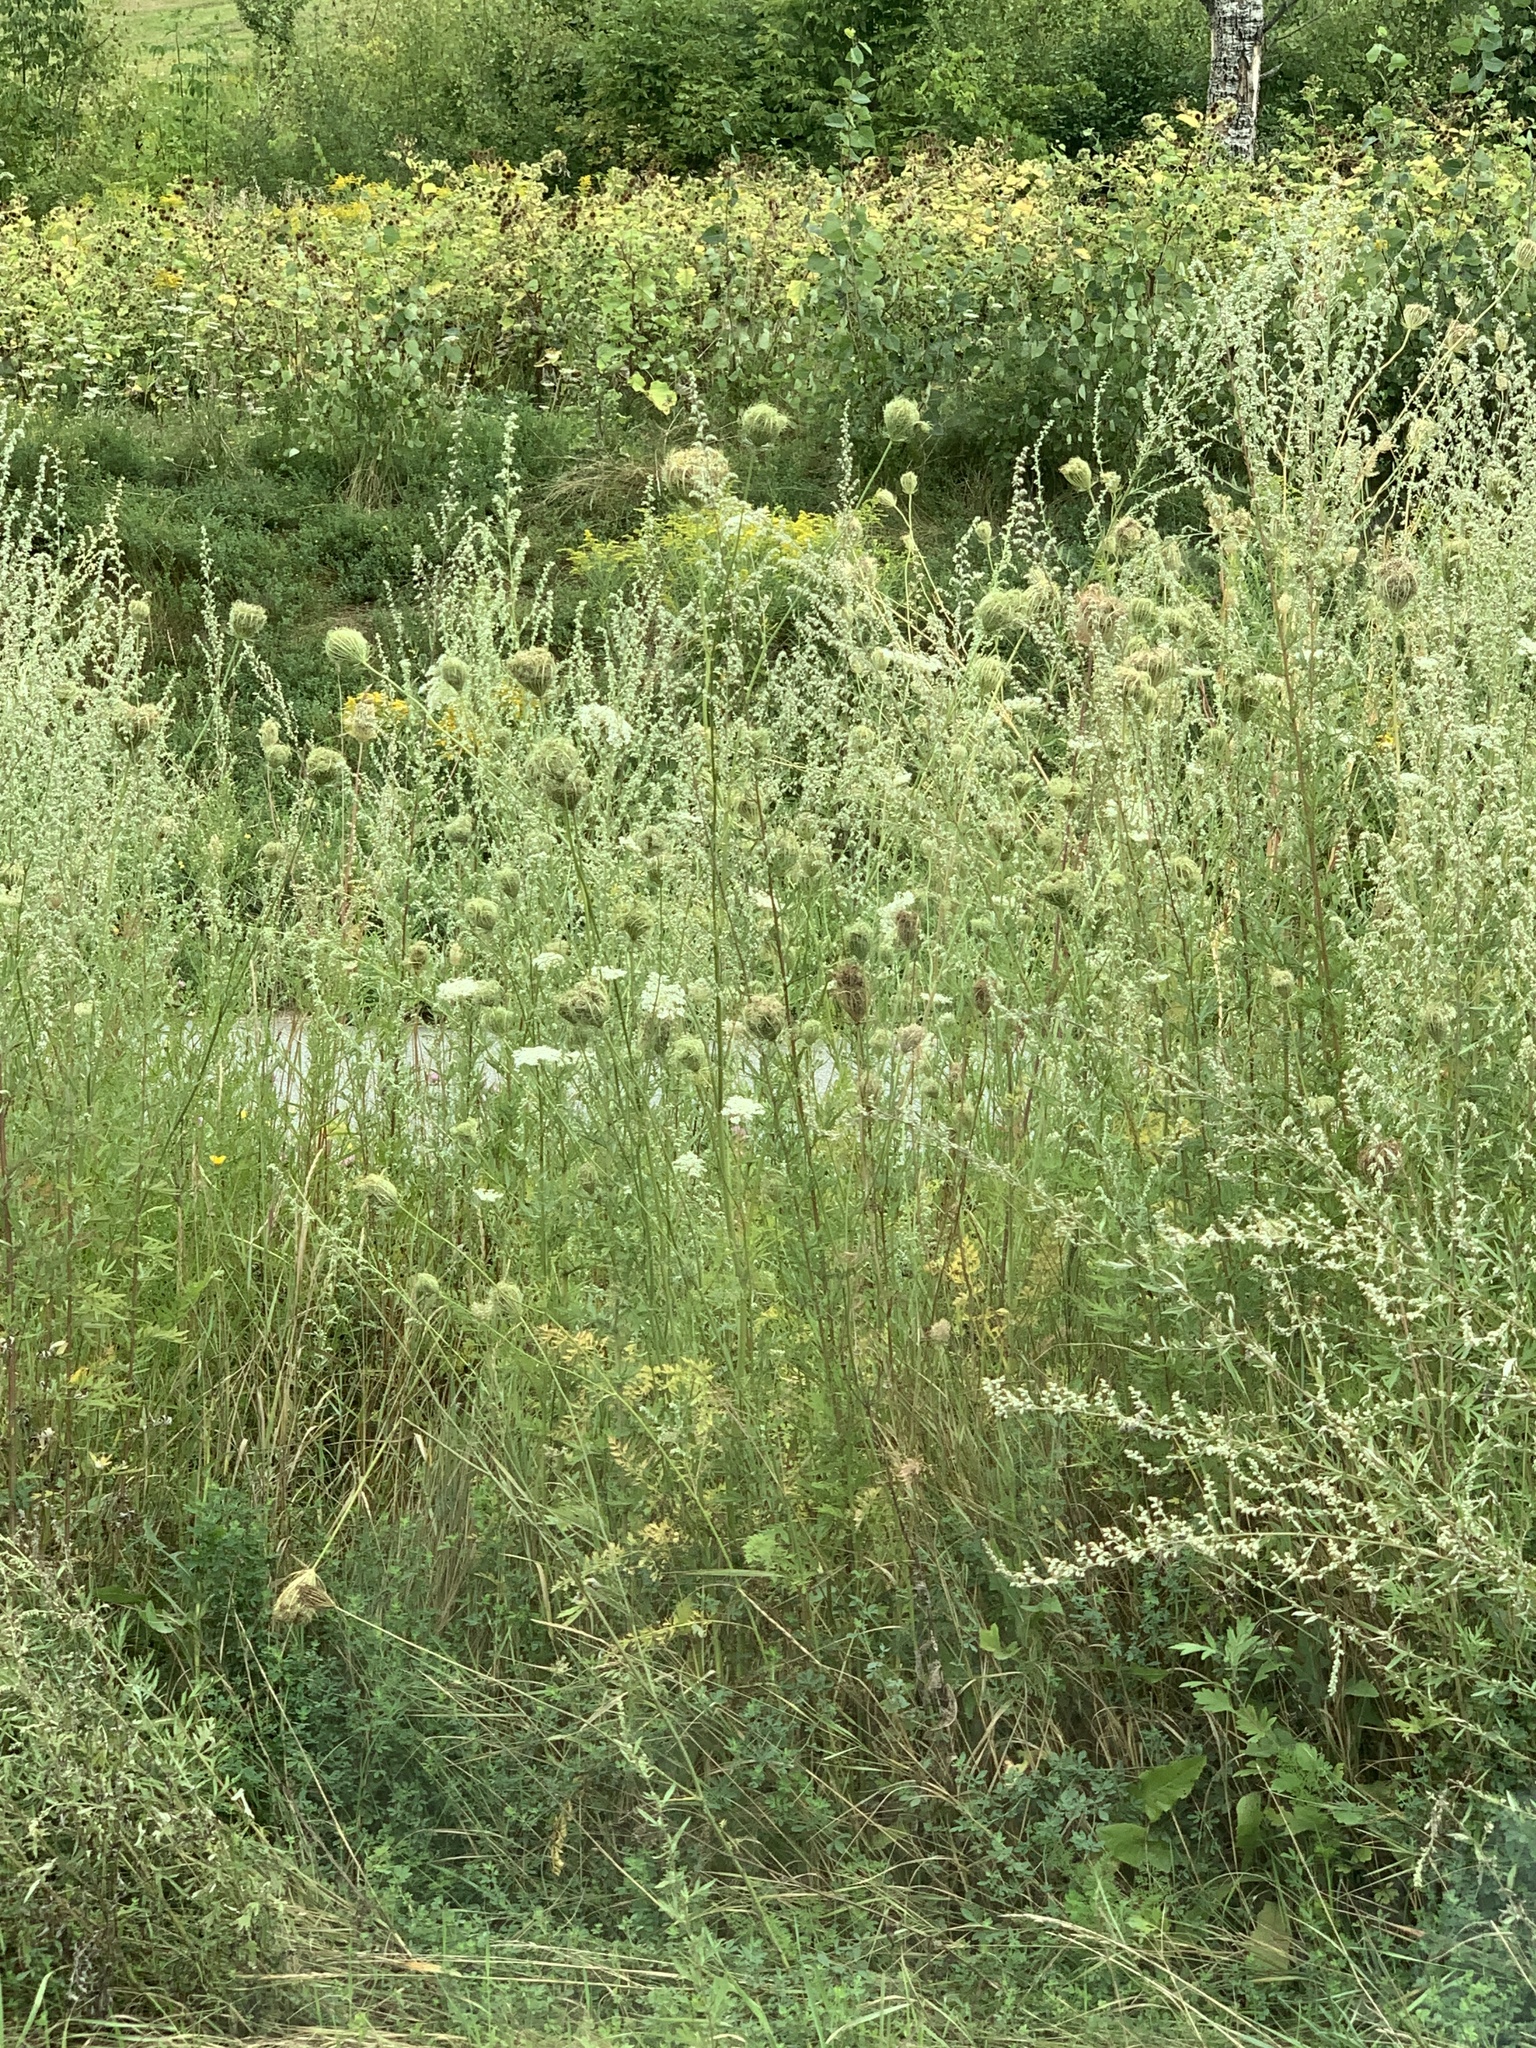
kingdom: Plantae
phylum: Tracheophyta
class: Magnoliopsida
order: Apiales
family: Apiaceae
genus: Daucus
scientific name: Daucus carota
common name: Wild carrot
